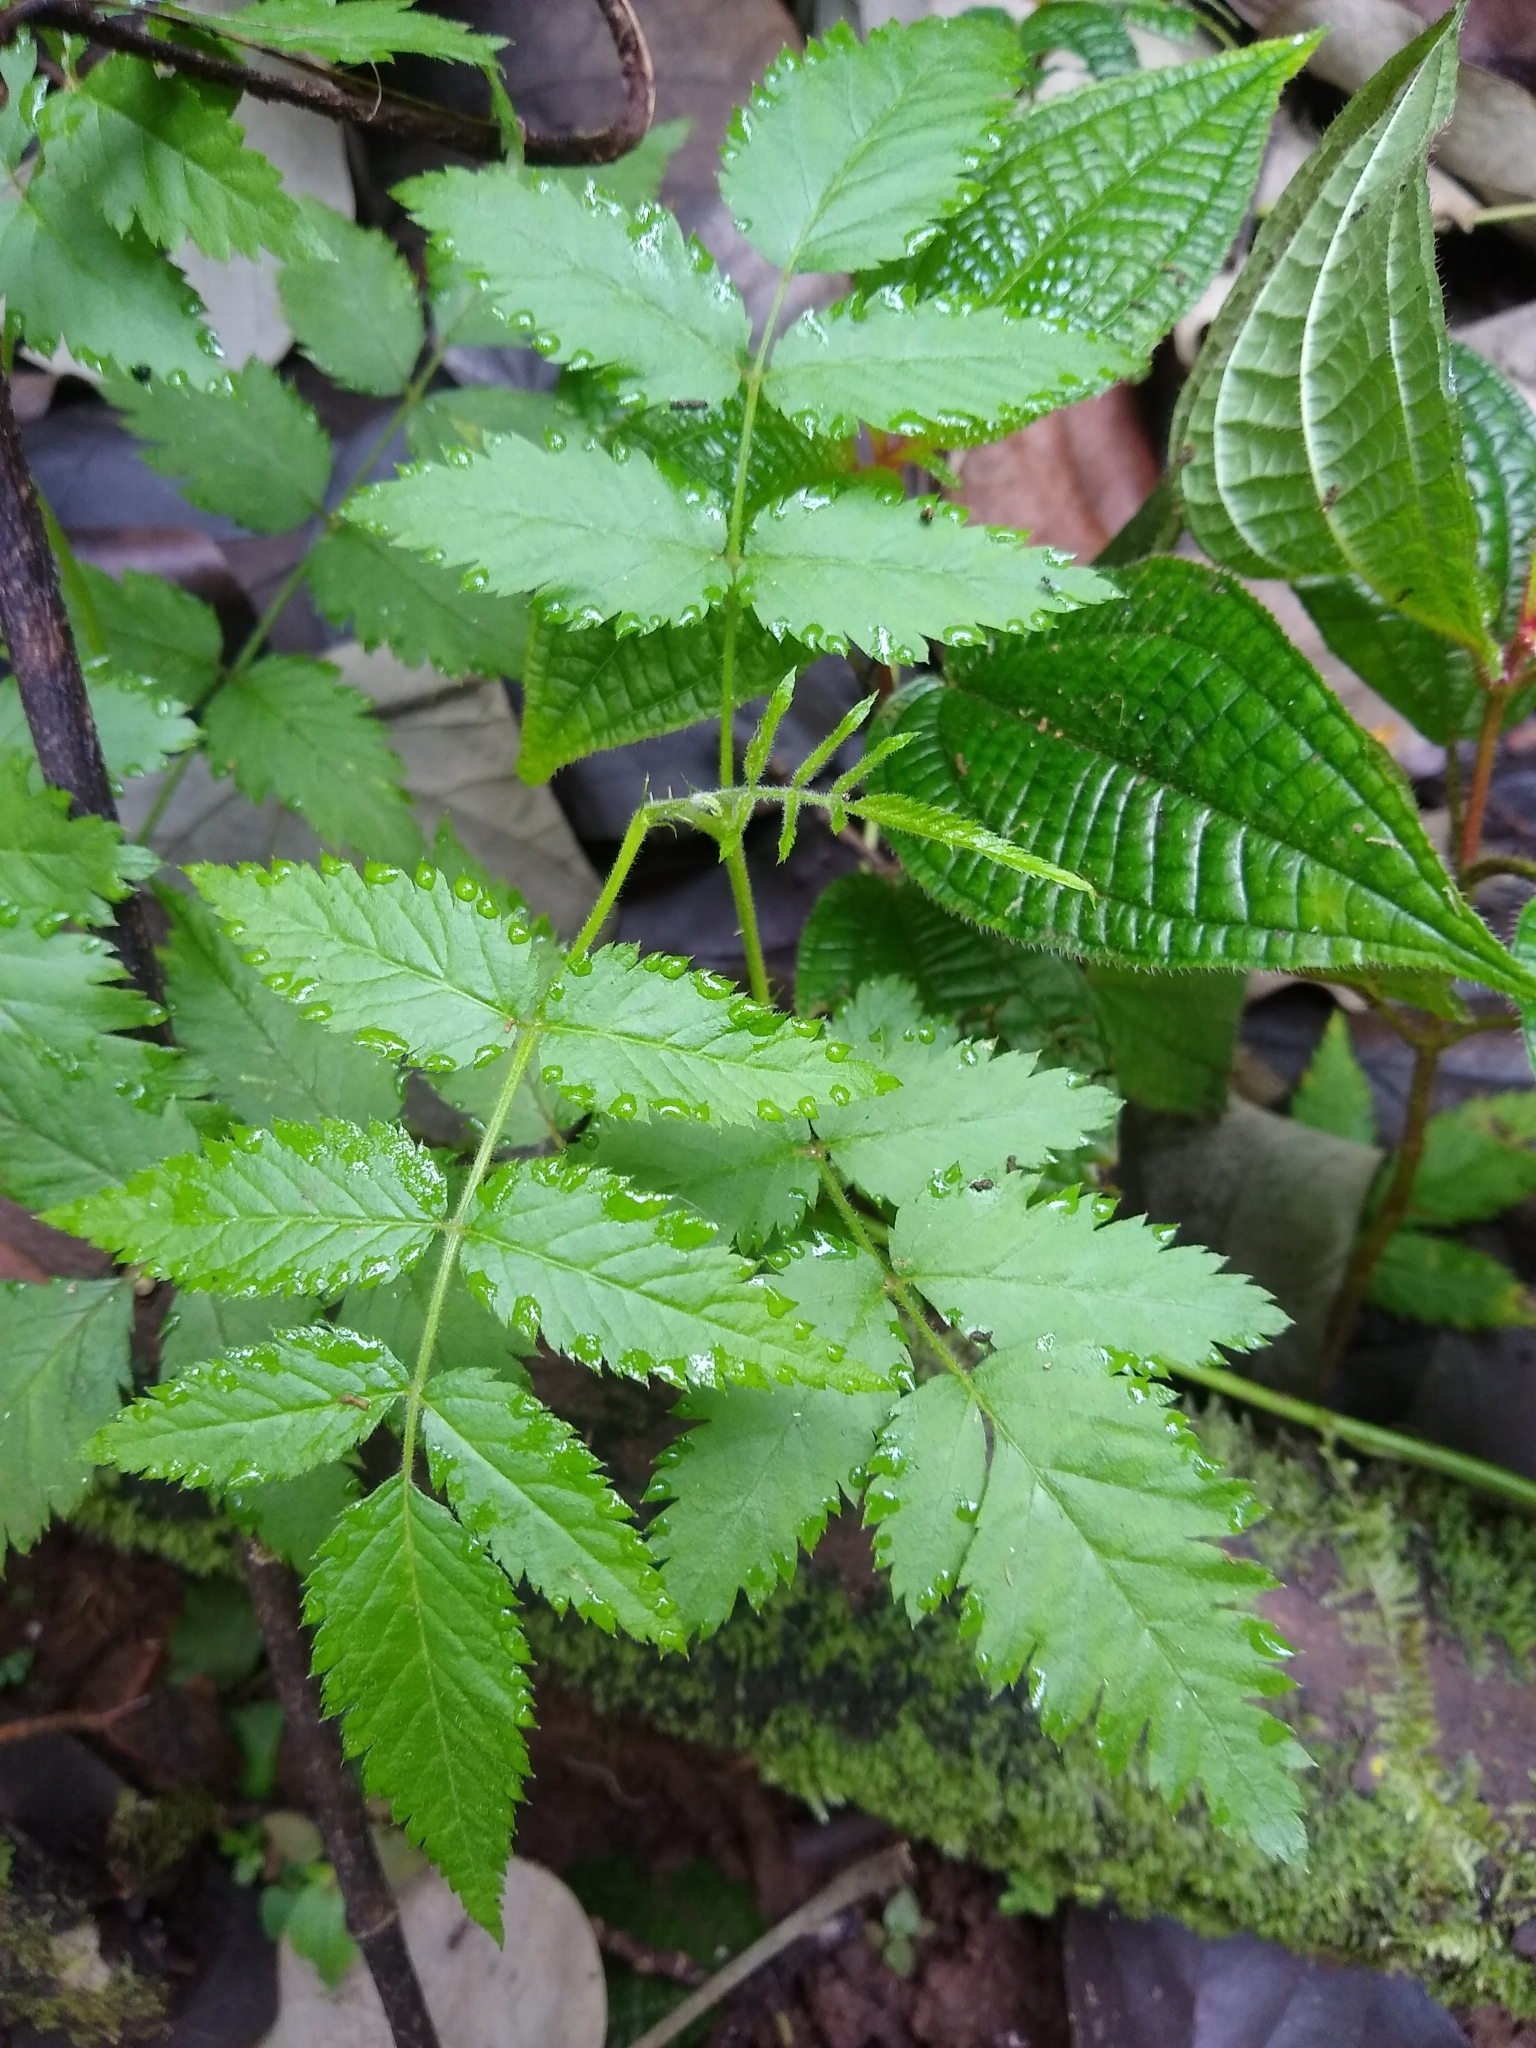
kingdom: Plantae
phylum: Tracheophyta
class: Magnoliopsida
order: Rosales
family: Rosaceae
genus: Rubus
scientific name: Rubus rosifolius
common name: Roseleaf raspberry
